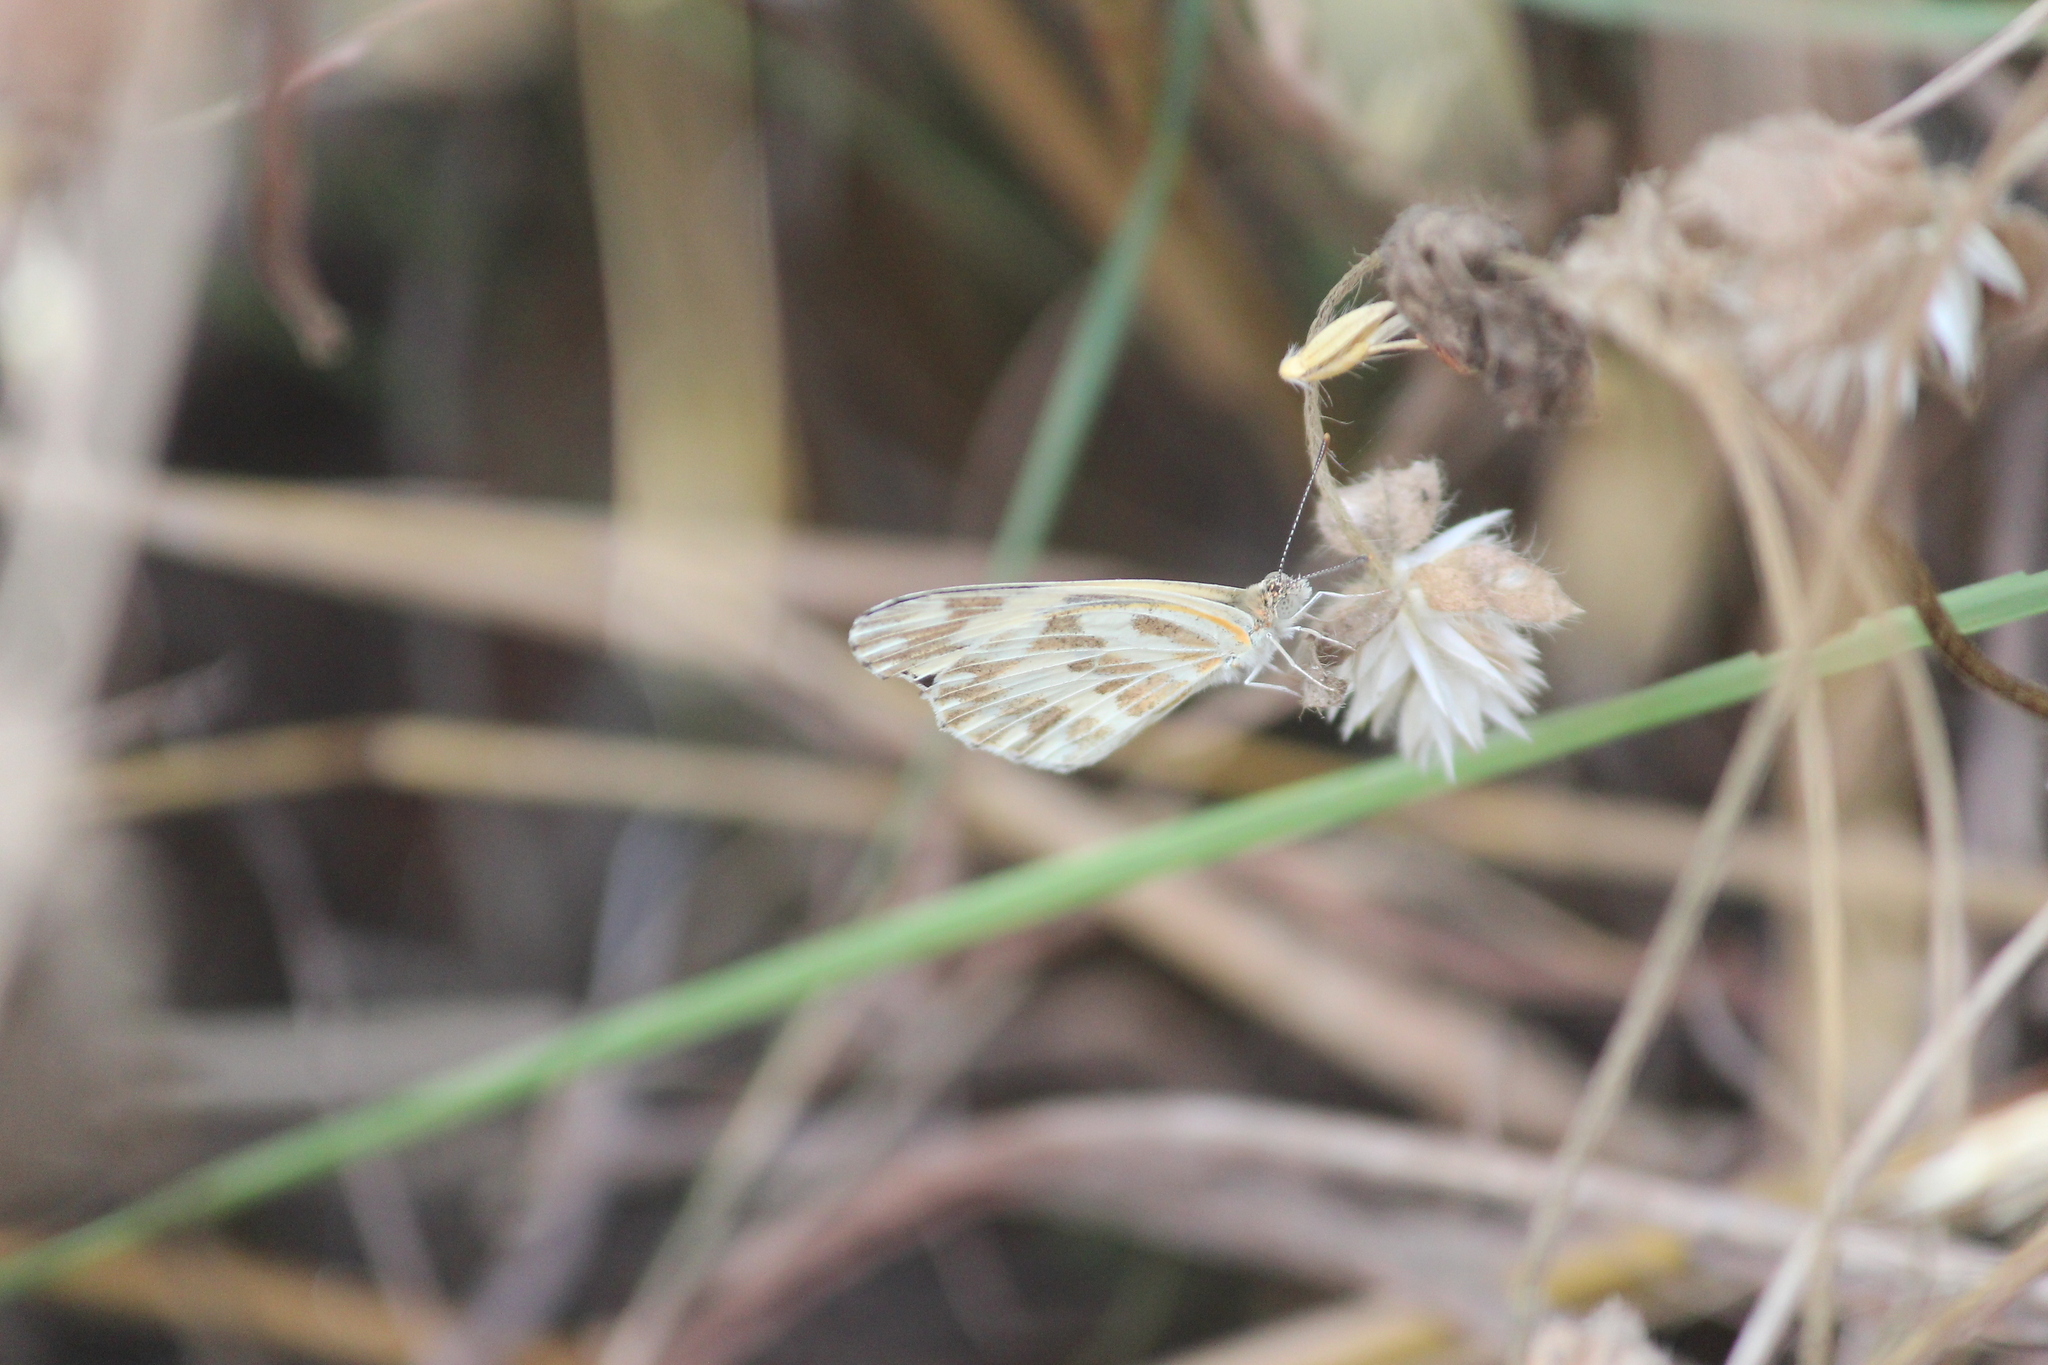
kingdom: Animalia
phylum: Arthropoda
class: Insecta
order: Lepidoptera
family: Pieridae
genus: Pinacopteryx
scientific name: Pinacopteryx eriphia
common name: Zebra white
